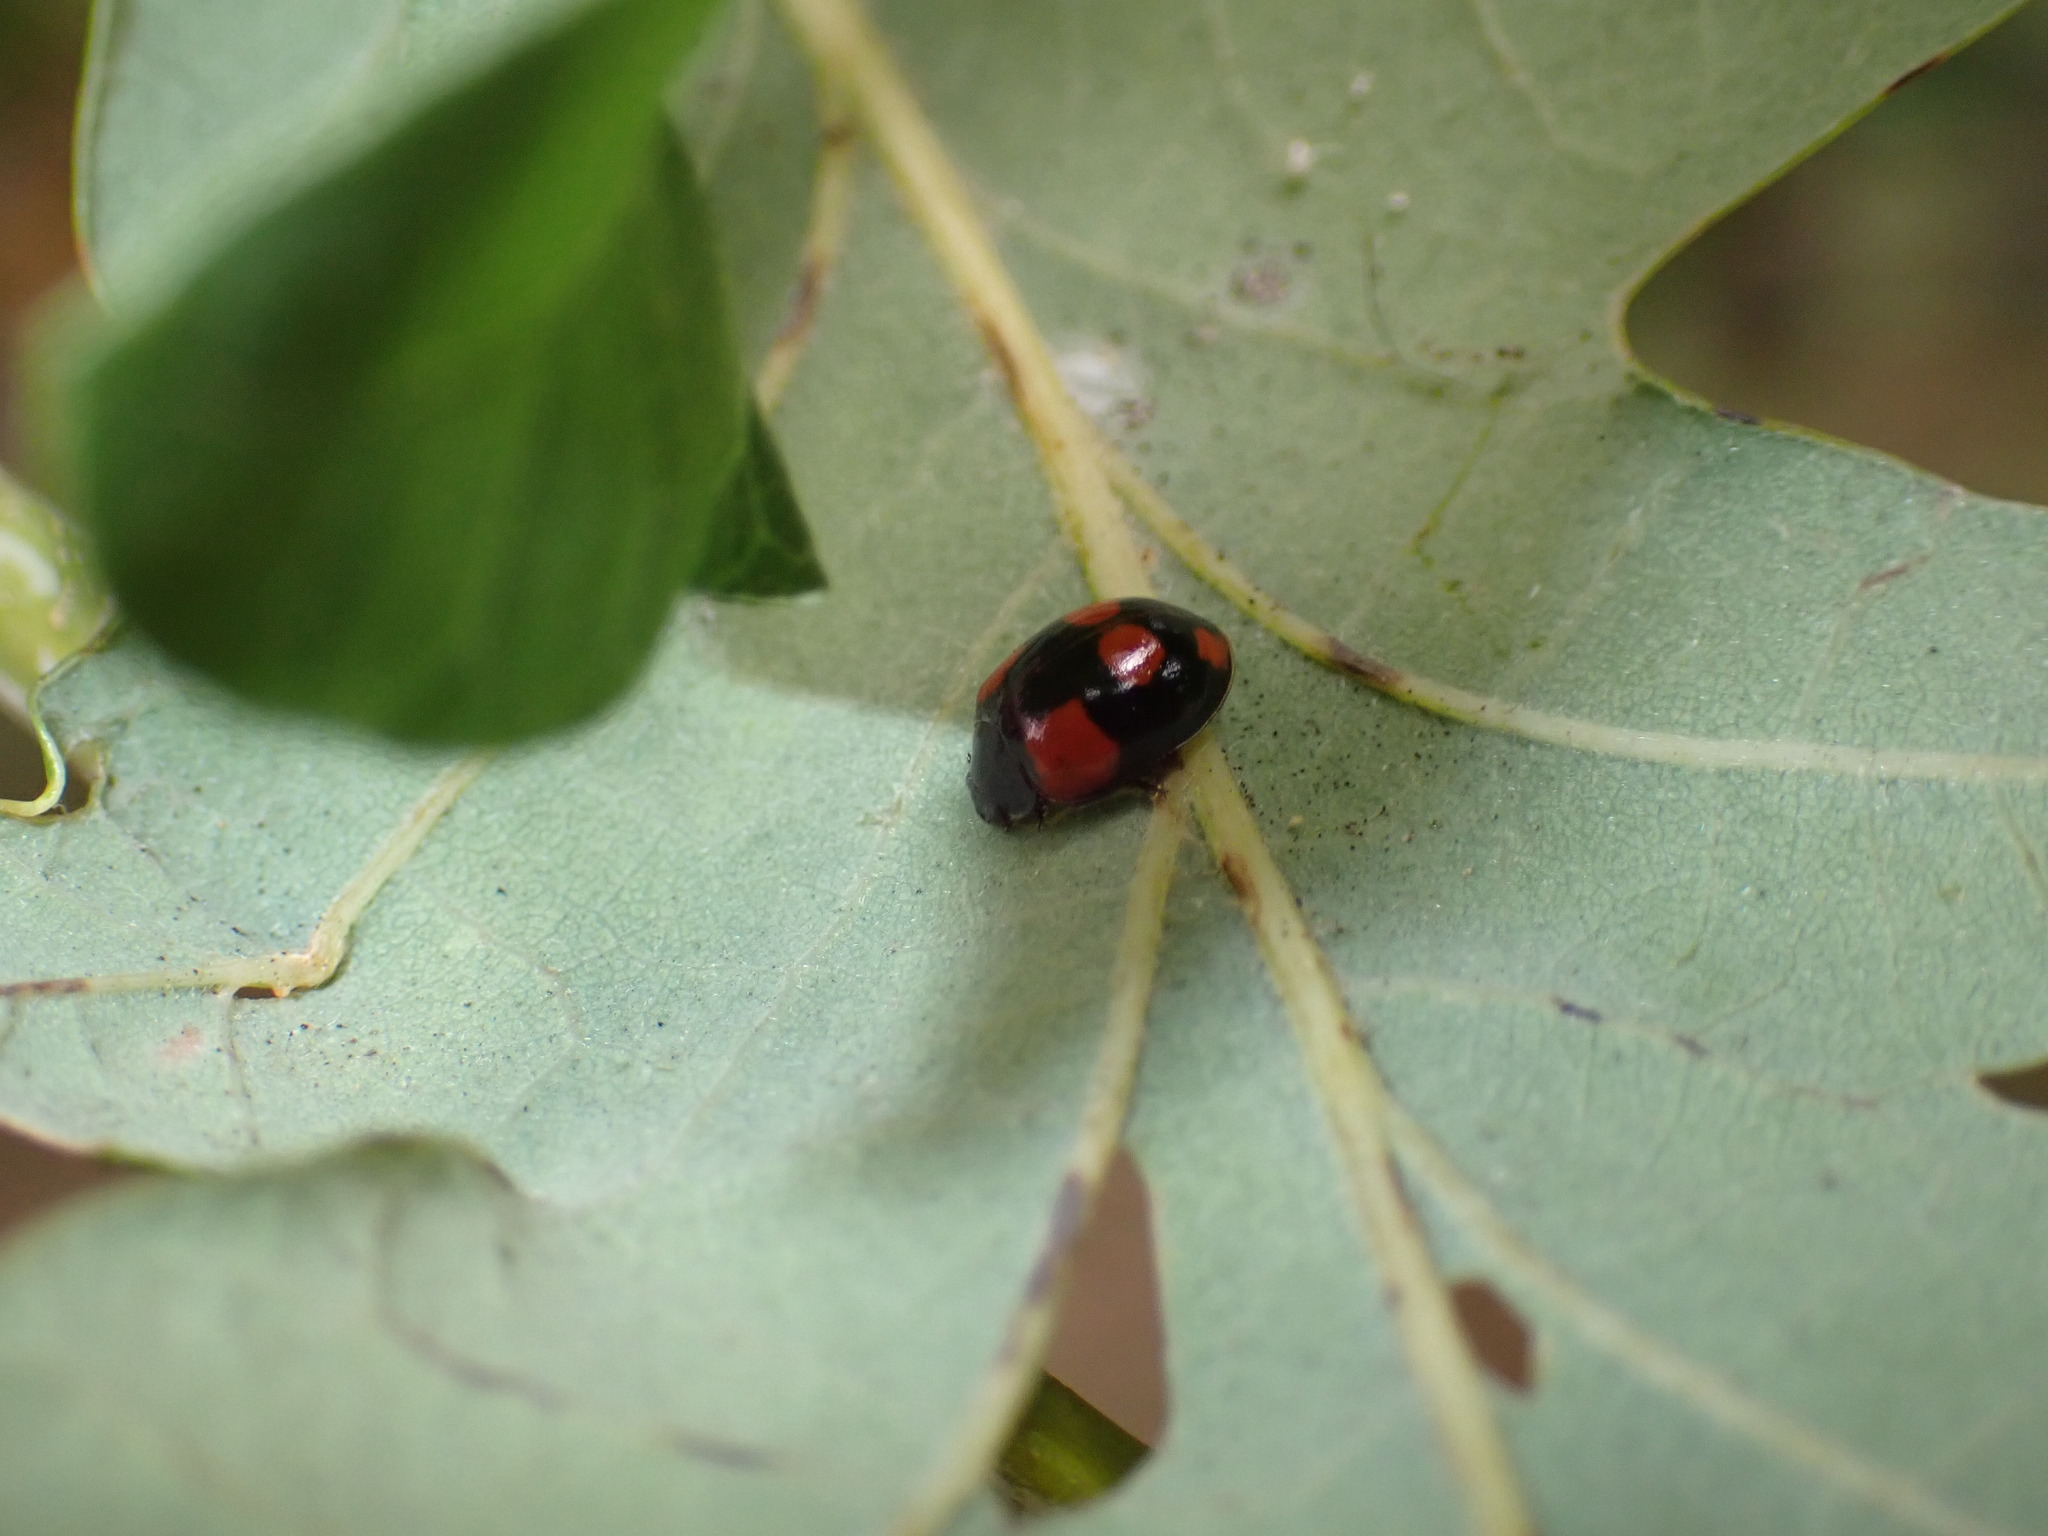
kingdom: Animalia
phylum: Arthropoda
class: Insecta
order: Coleoptera
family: Coccinellidae
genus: Adalia
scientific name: Adalia bipunctata
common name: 2-spot ladybird
